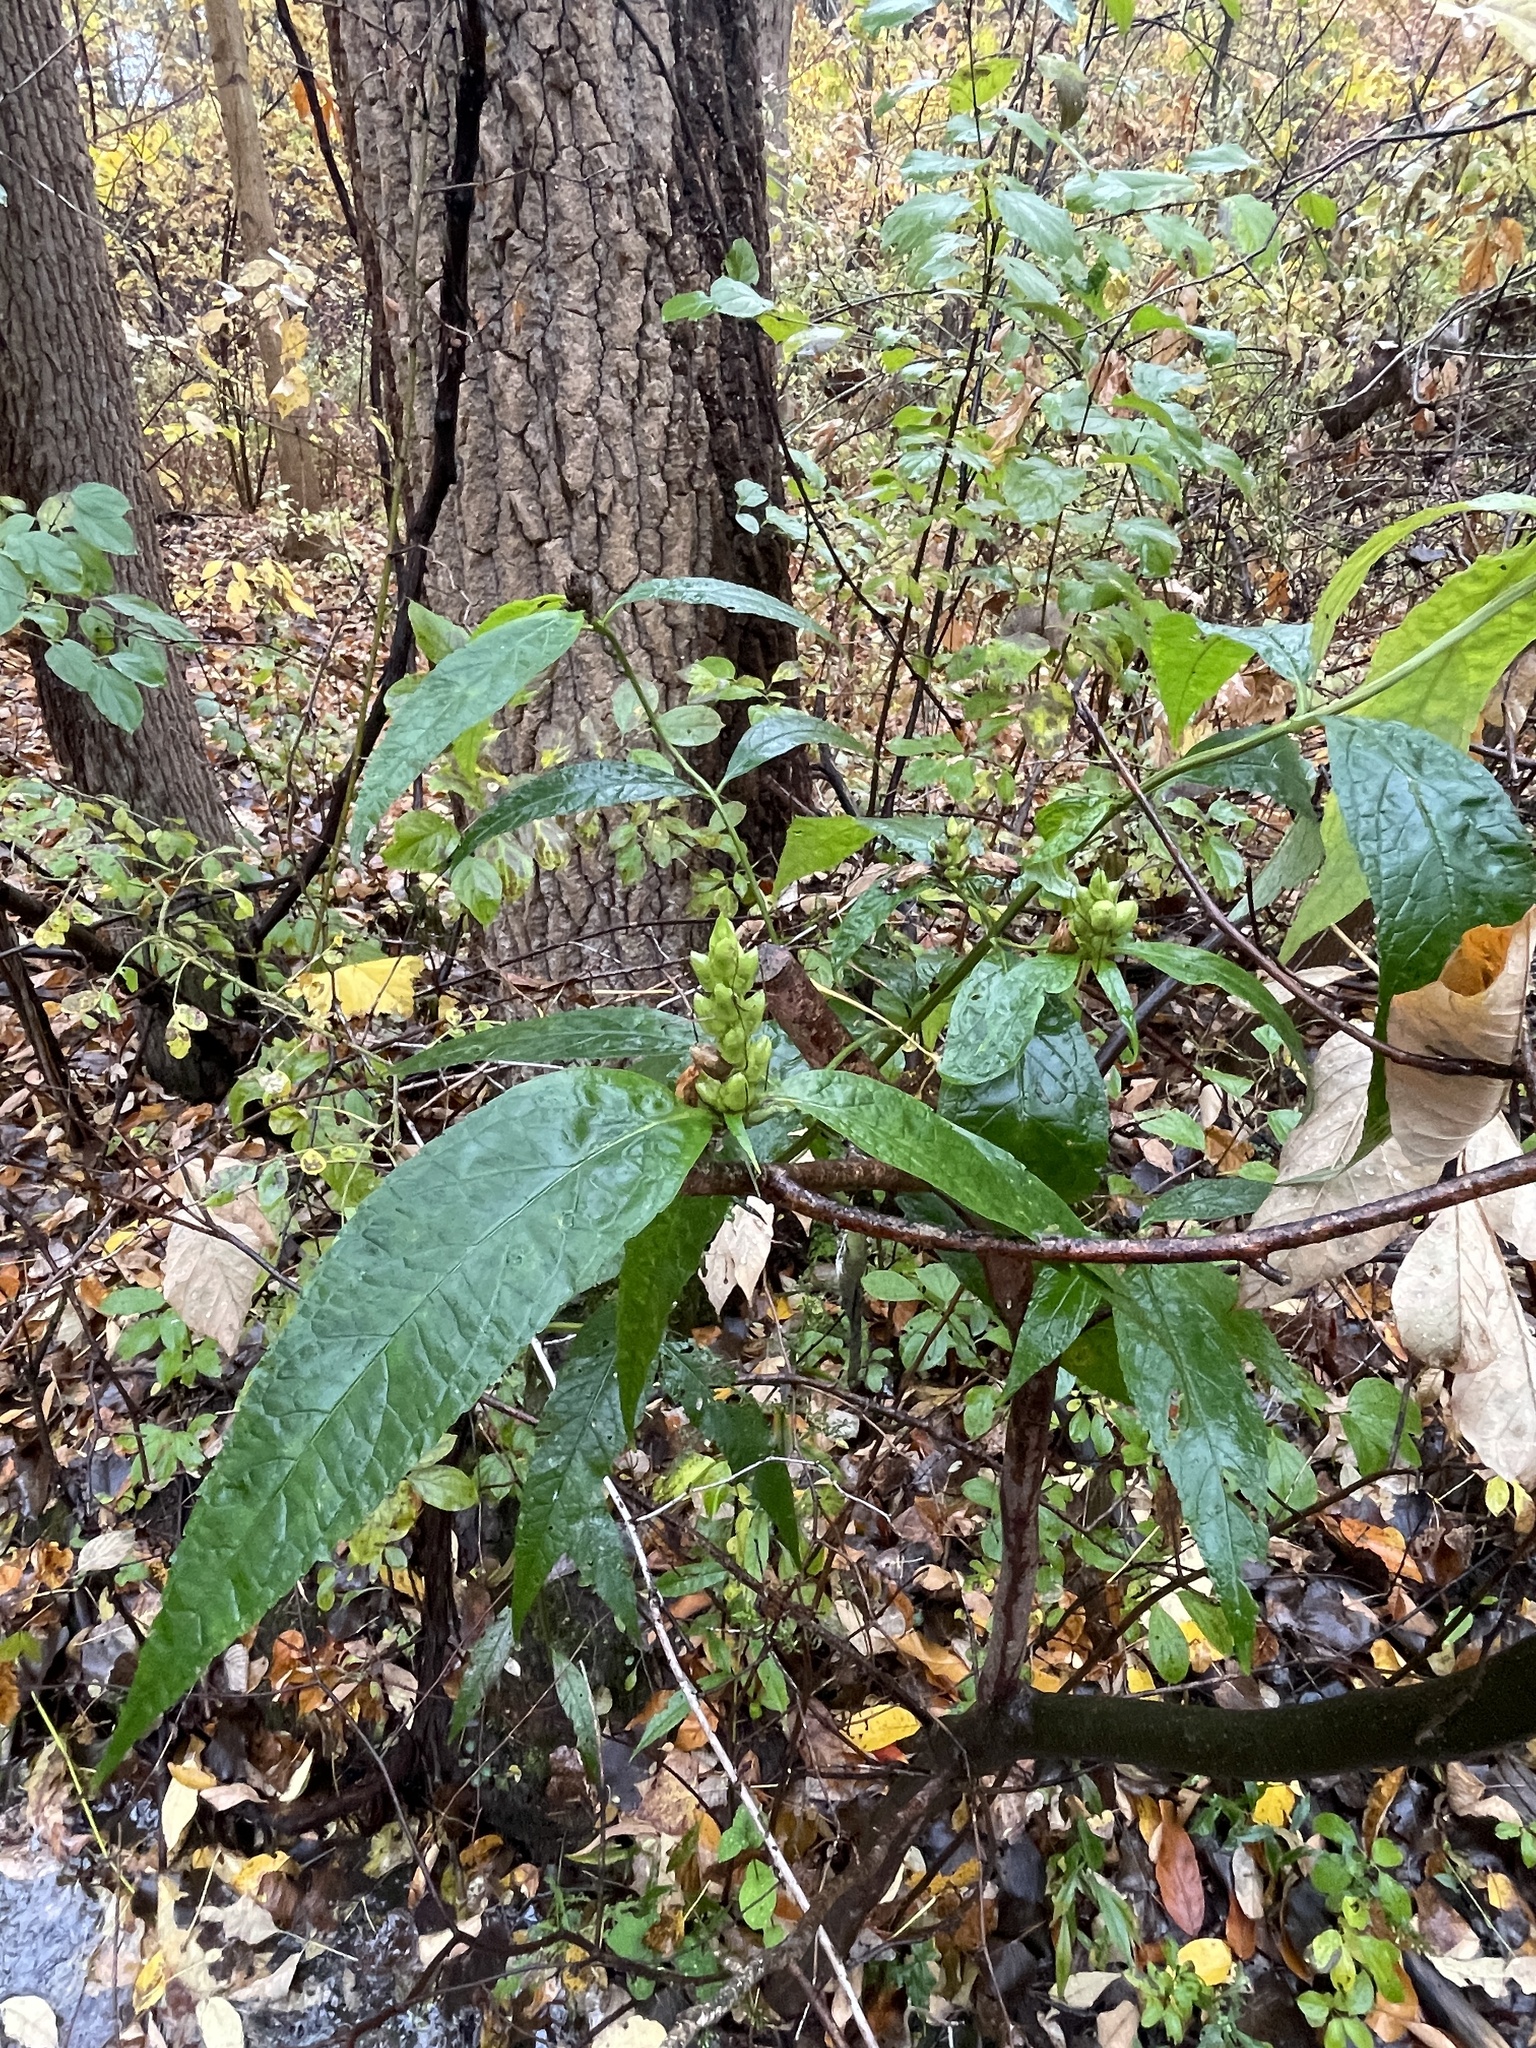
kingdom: Plantae
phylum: Tracheophyta
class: Magnoliopsida
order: Lamiales
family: Plantaginaceae
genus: Chelone
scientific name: Chelone glabra
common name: Snakehead
